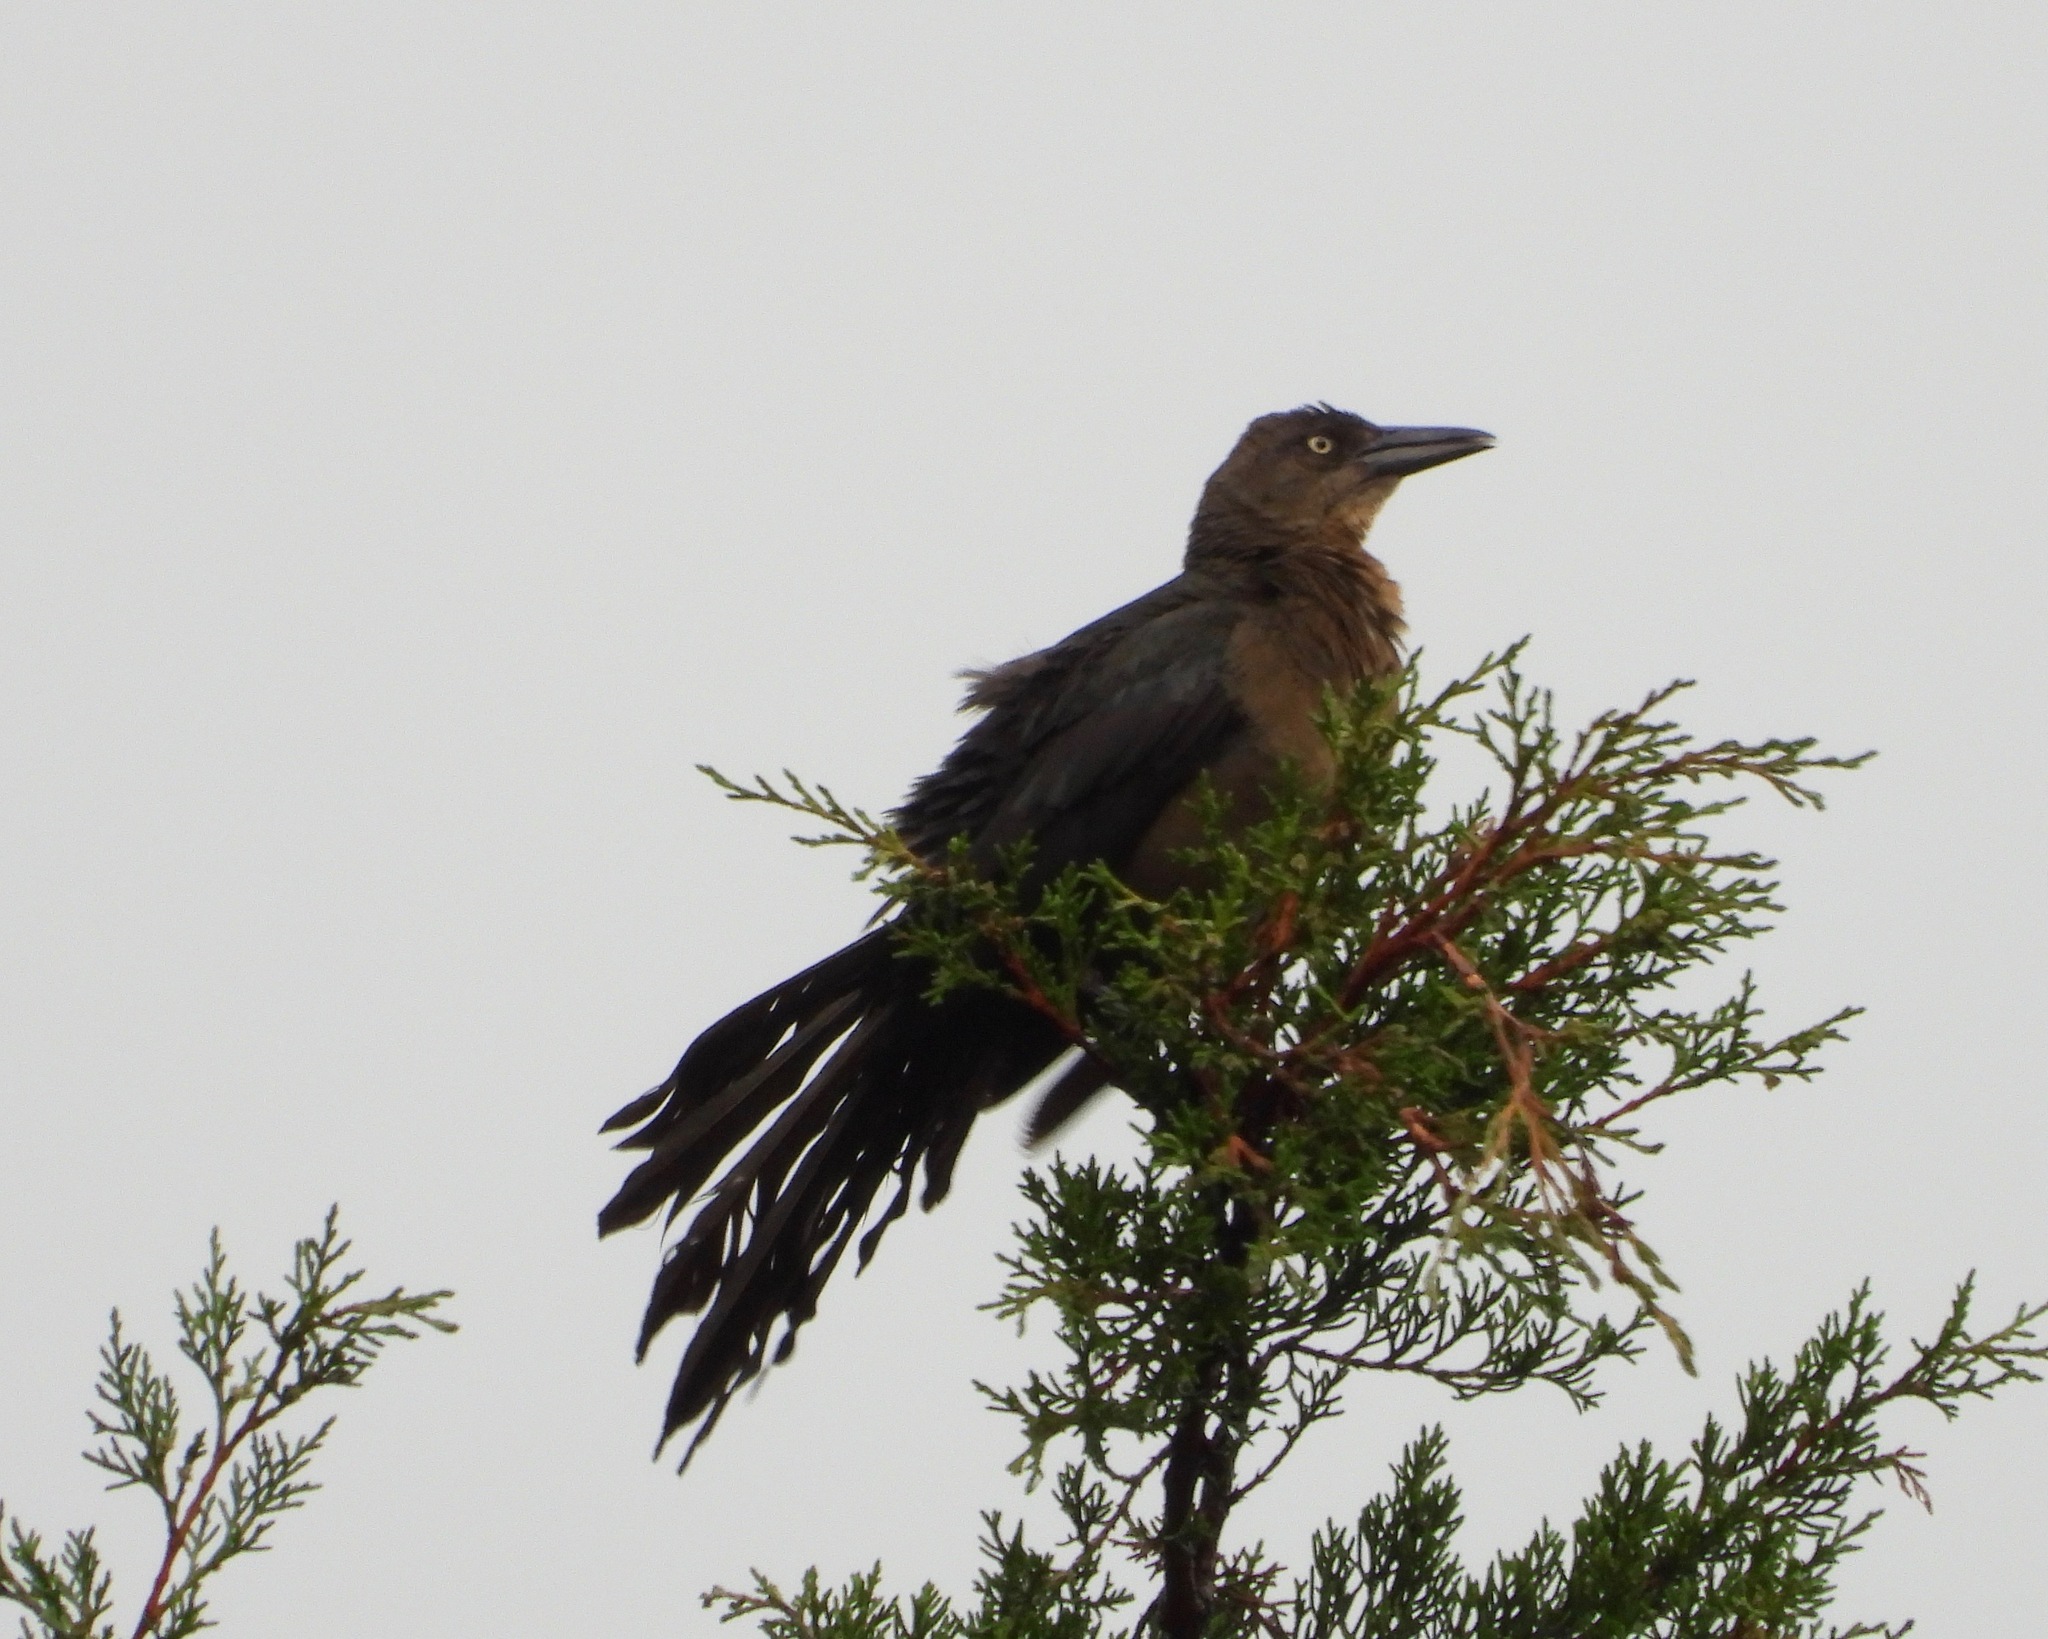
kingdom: Animalia
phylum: Chordata
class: Aves
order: Passeriformes
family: Icteridae
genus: Quiscalus
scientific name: Quiscalus mexicanus
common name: Great-tailed grackle
